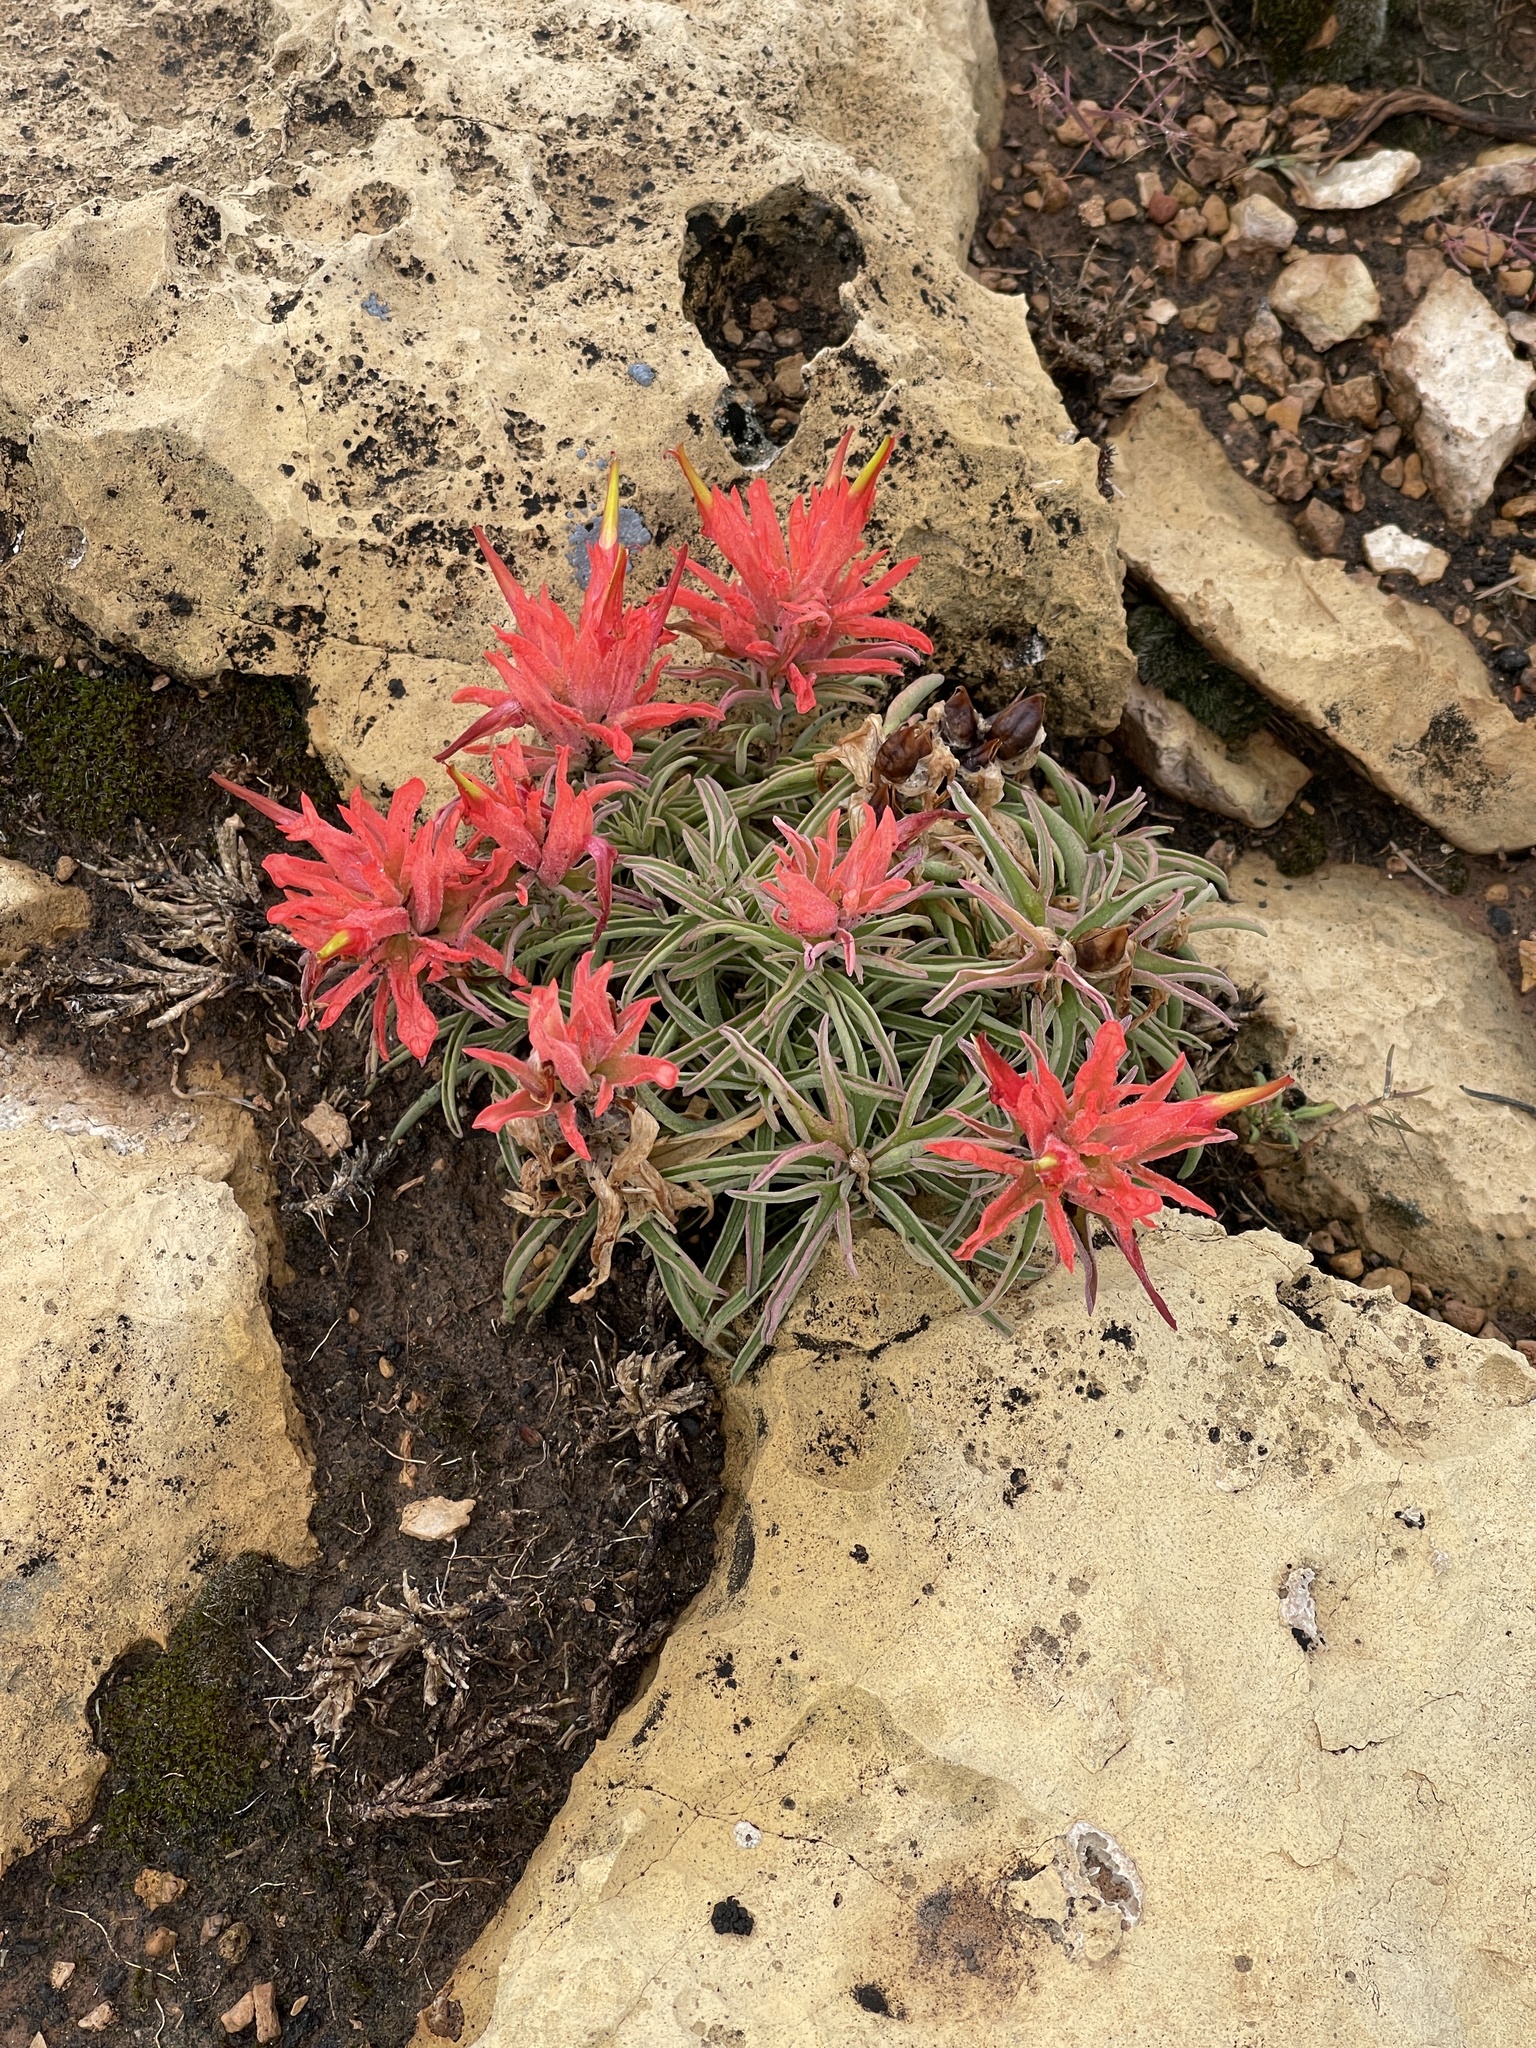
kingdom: Plantae
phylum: Tracheophyta
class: Magnoliopsida
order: Lamiales
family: Orobanchaceae
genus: Castilleja
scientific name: Castilleja chromosa
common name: Desert paintbrush
